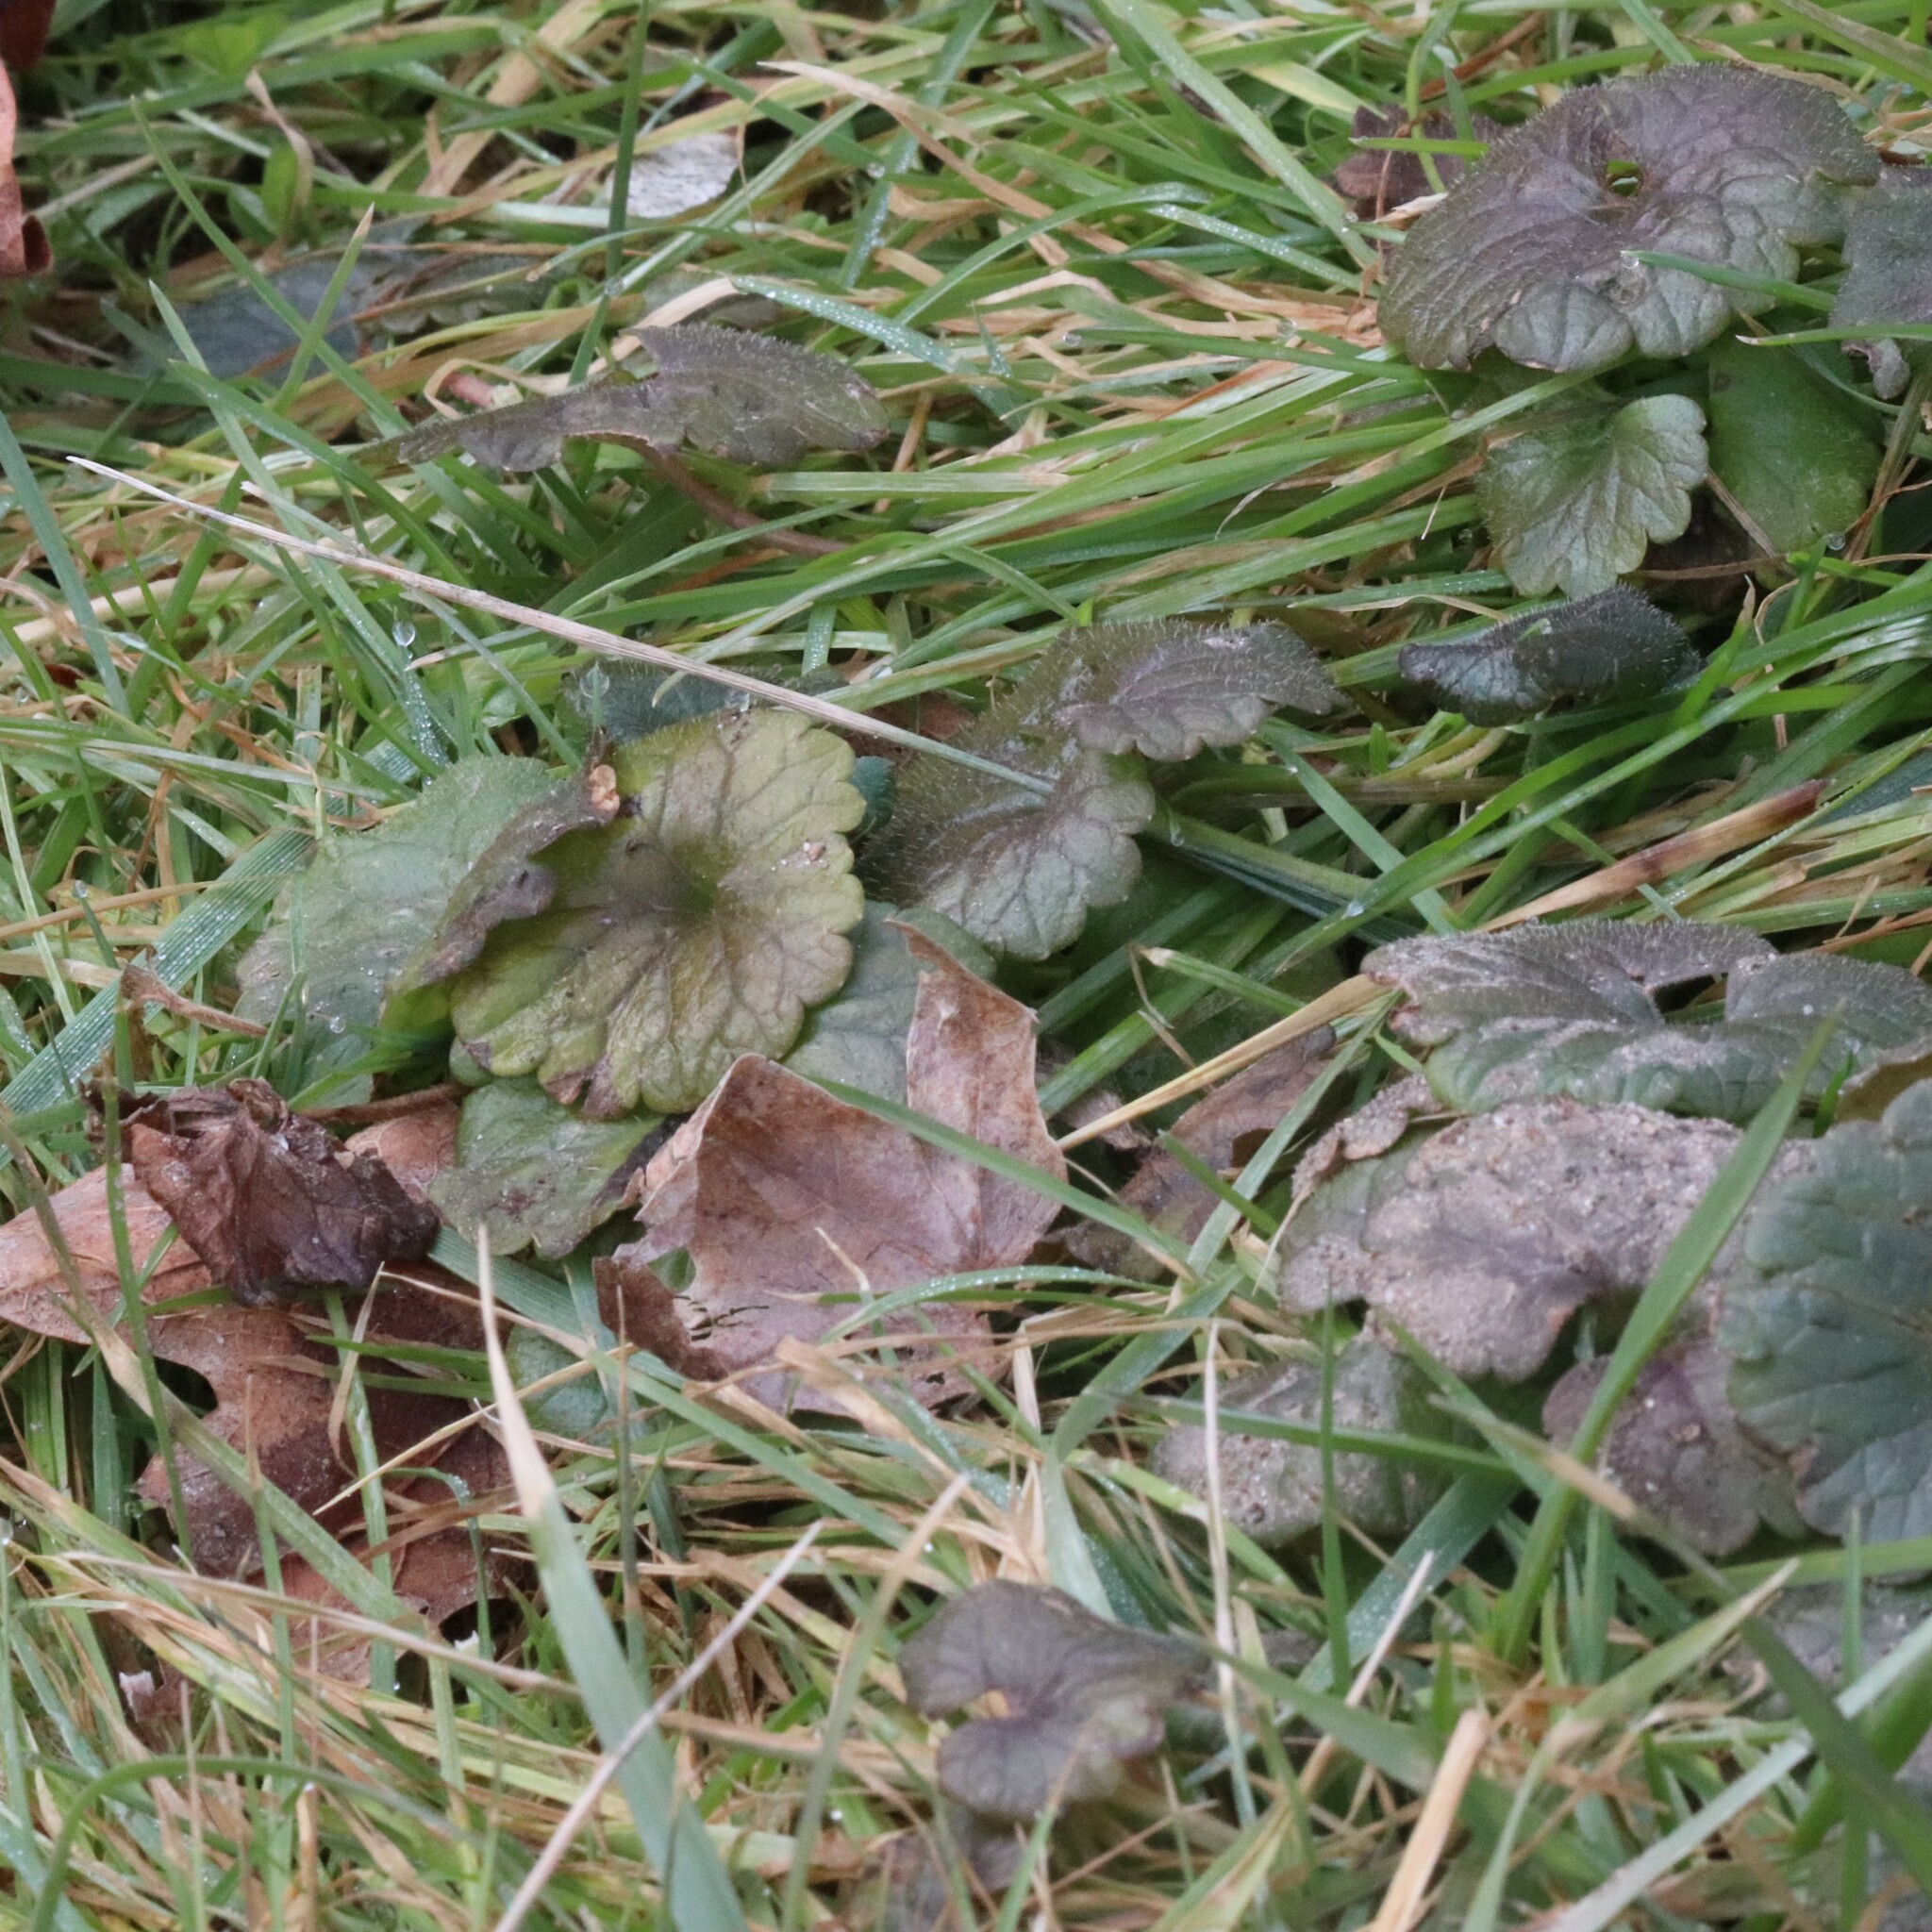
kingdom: Plantae
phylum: Tracheophyta
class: Magnoliopsida
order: Lamiales
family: Lamiaceae
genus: Glechoma
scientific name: Glechoma hederacea
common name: Ground ivy
